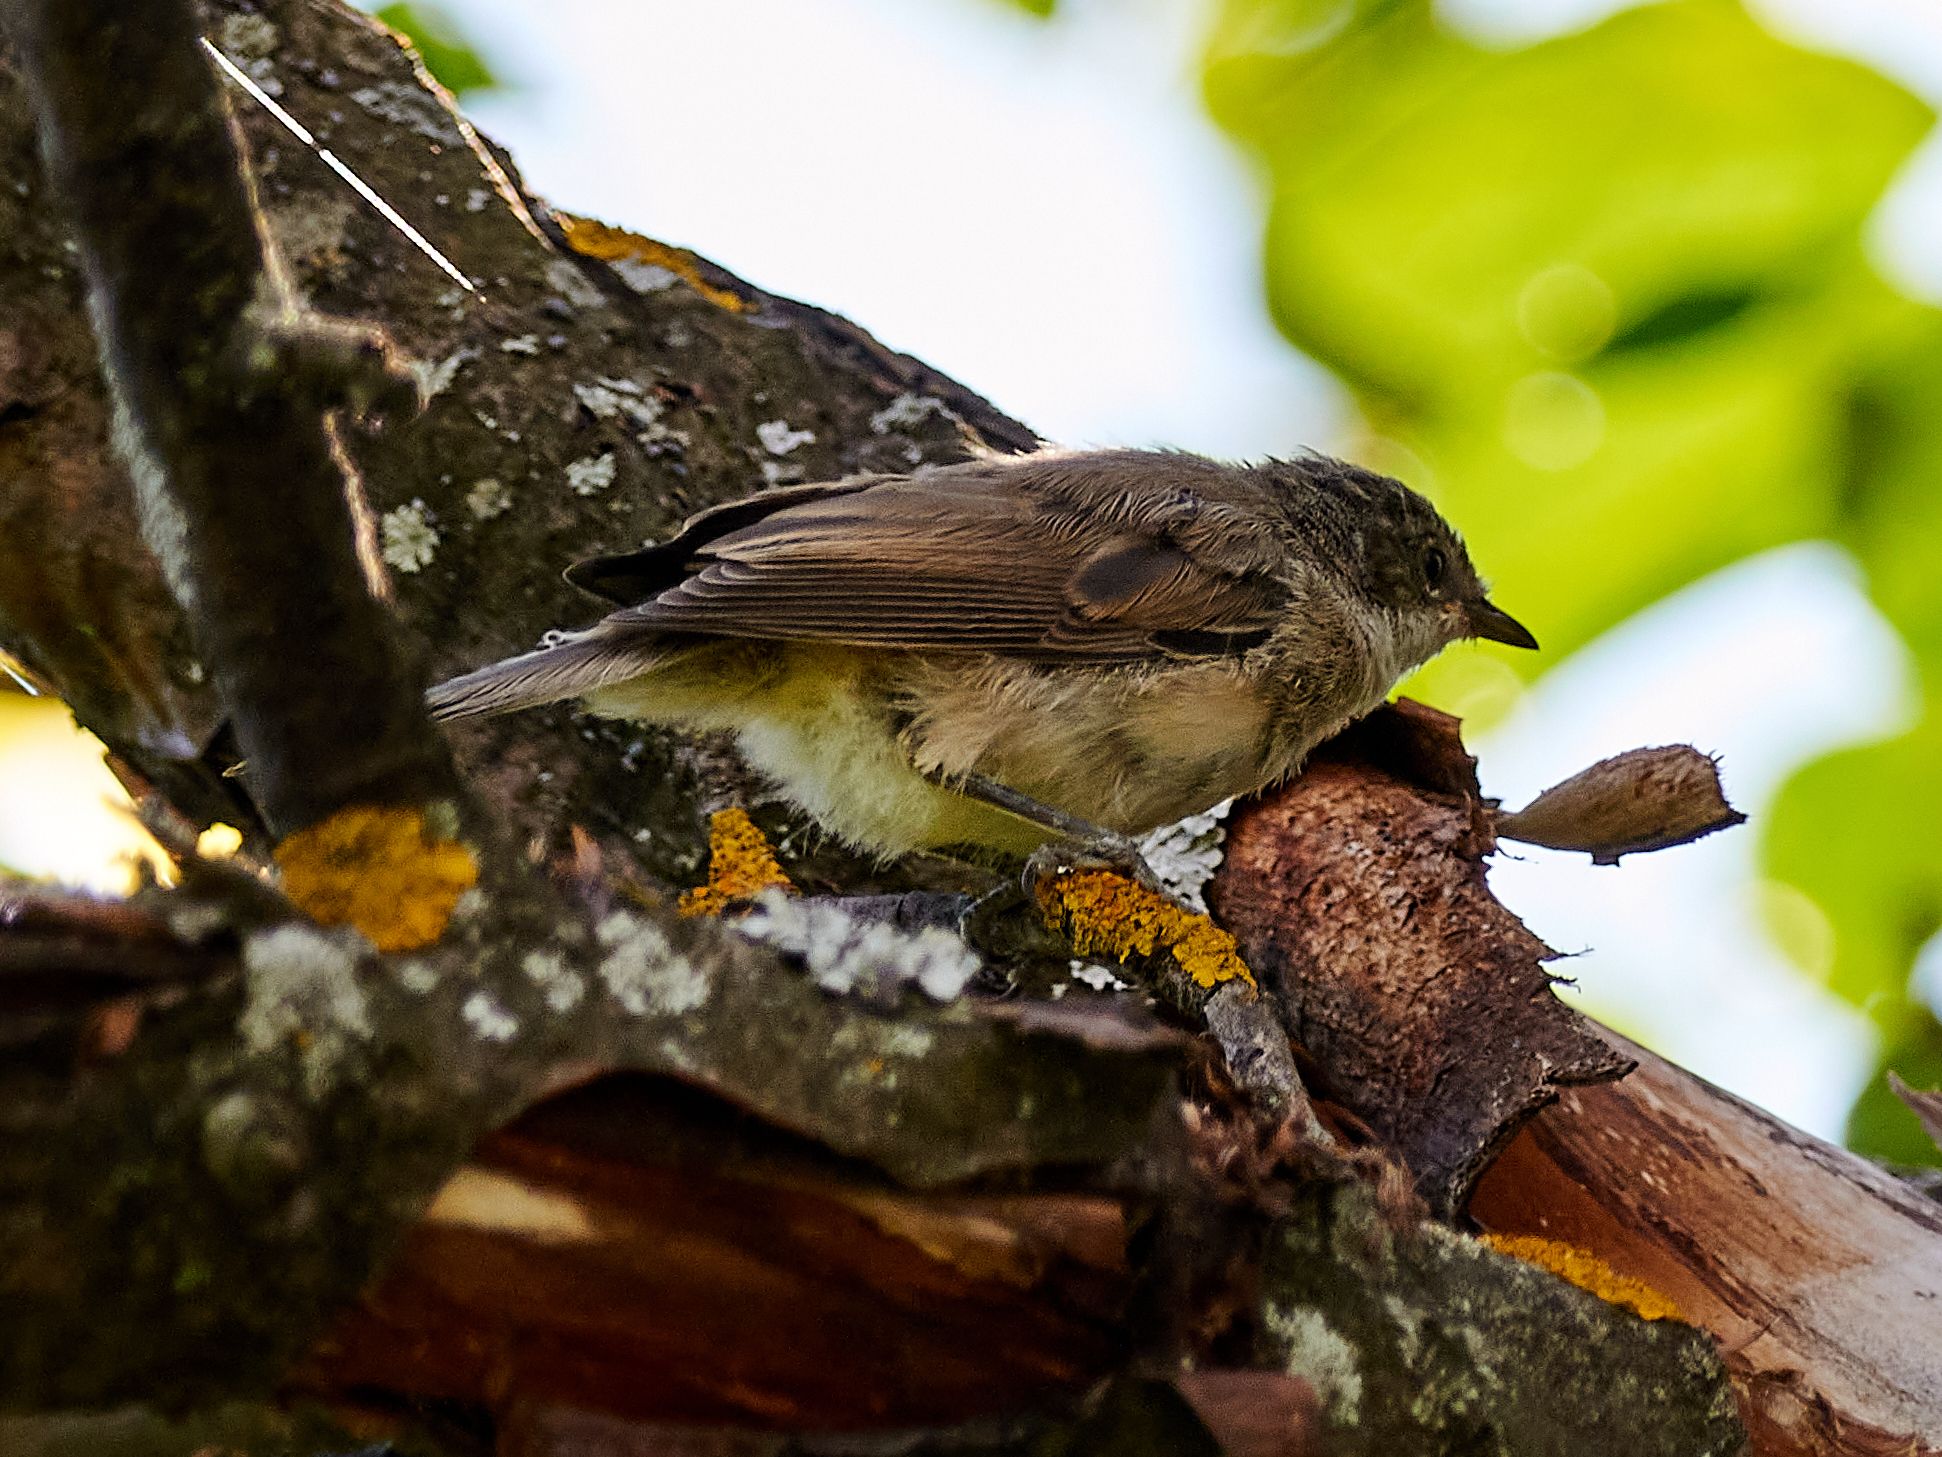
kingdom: Animalia
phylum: Chordata
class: Aves
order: Passeriformes
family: Sylviidae
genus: Sylvia
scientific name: Sylvia curruca
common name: Lesser whitethroat
